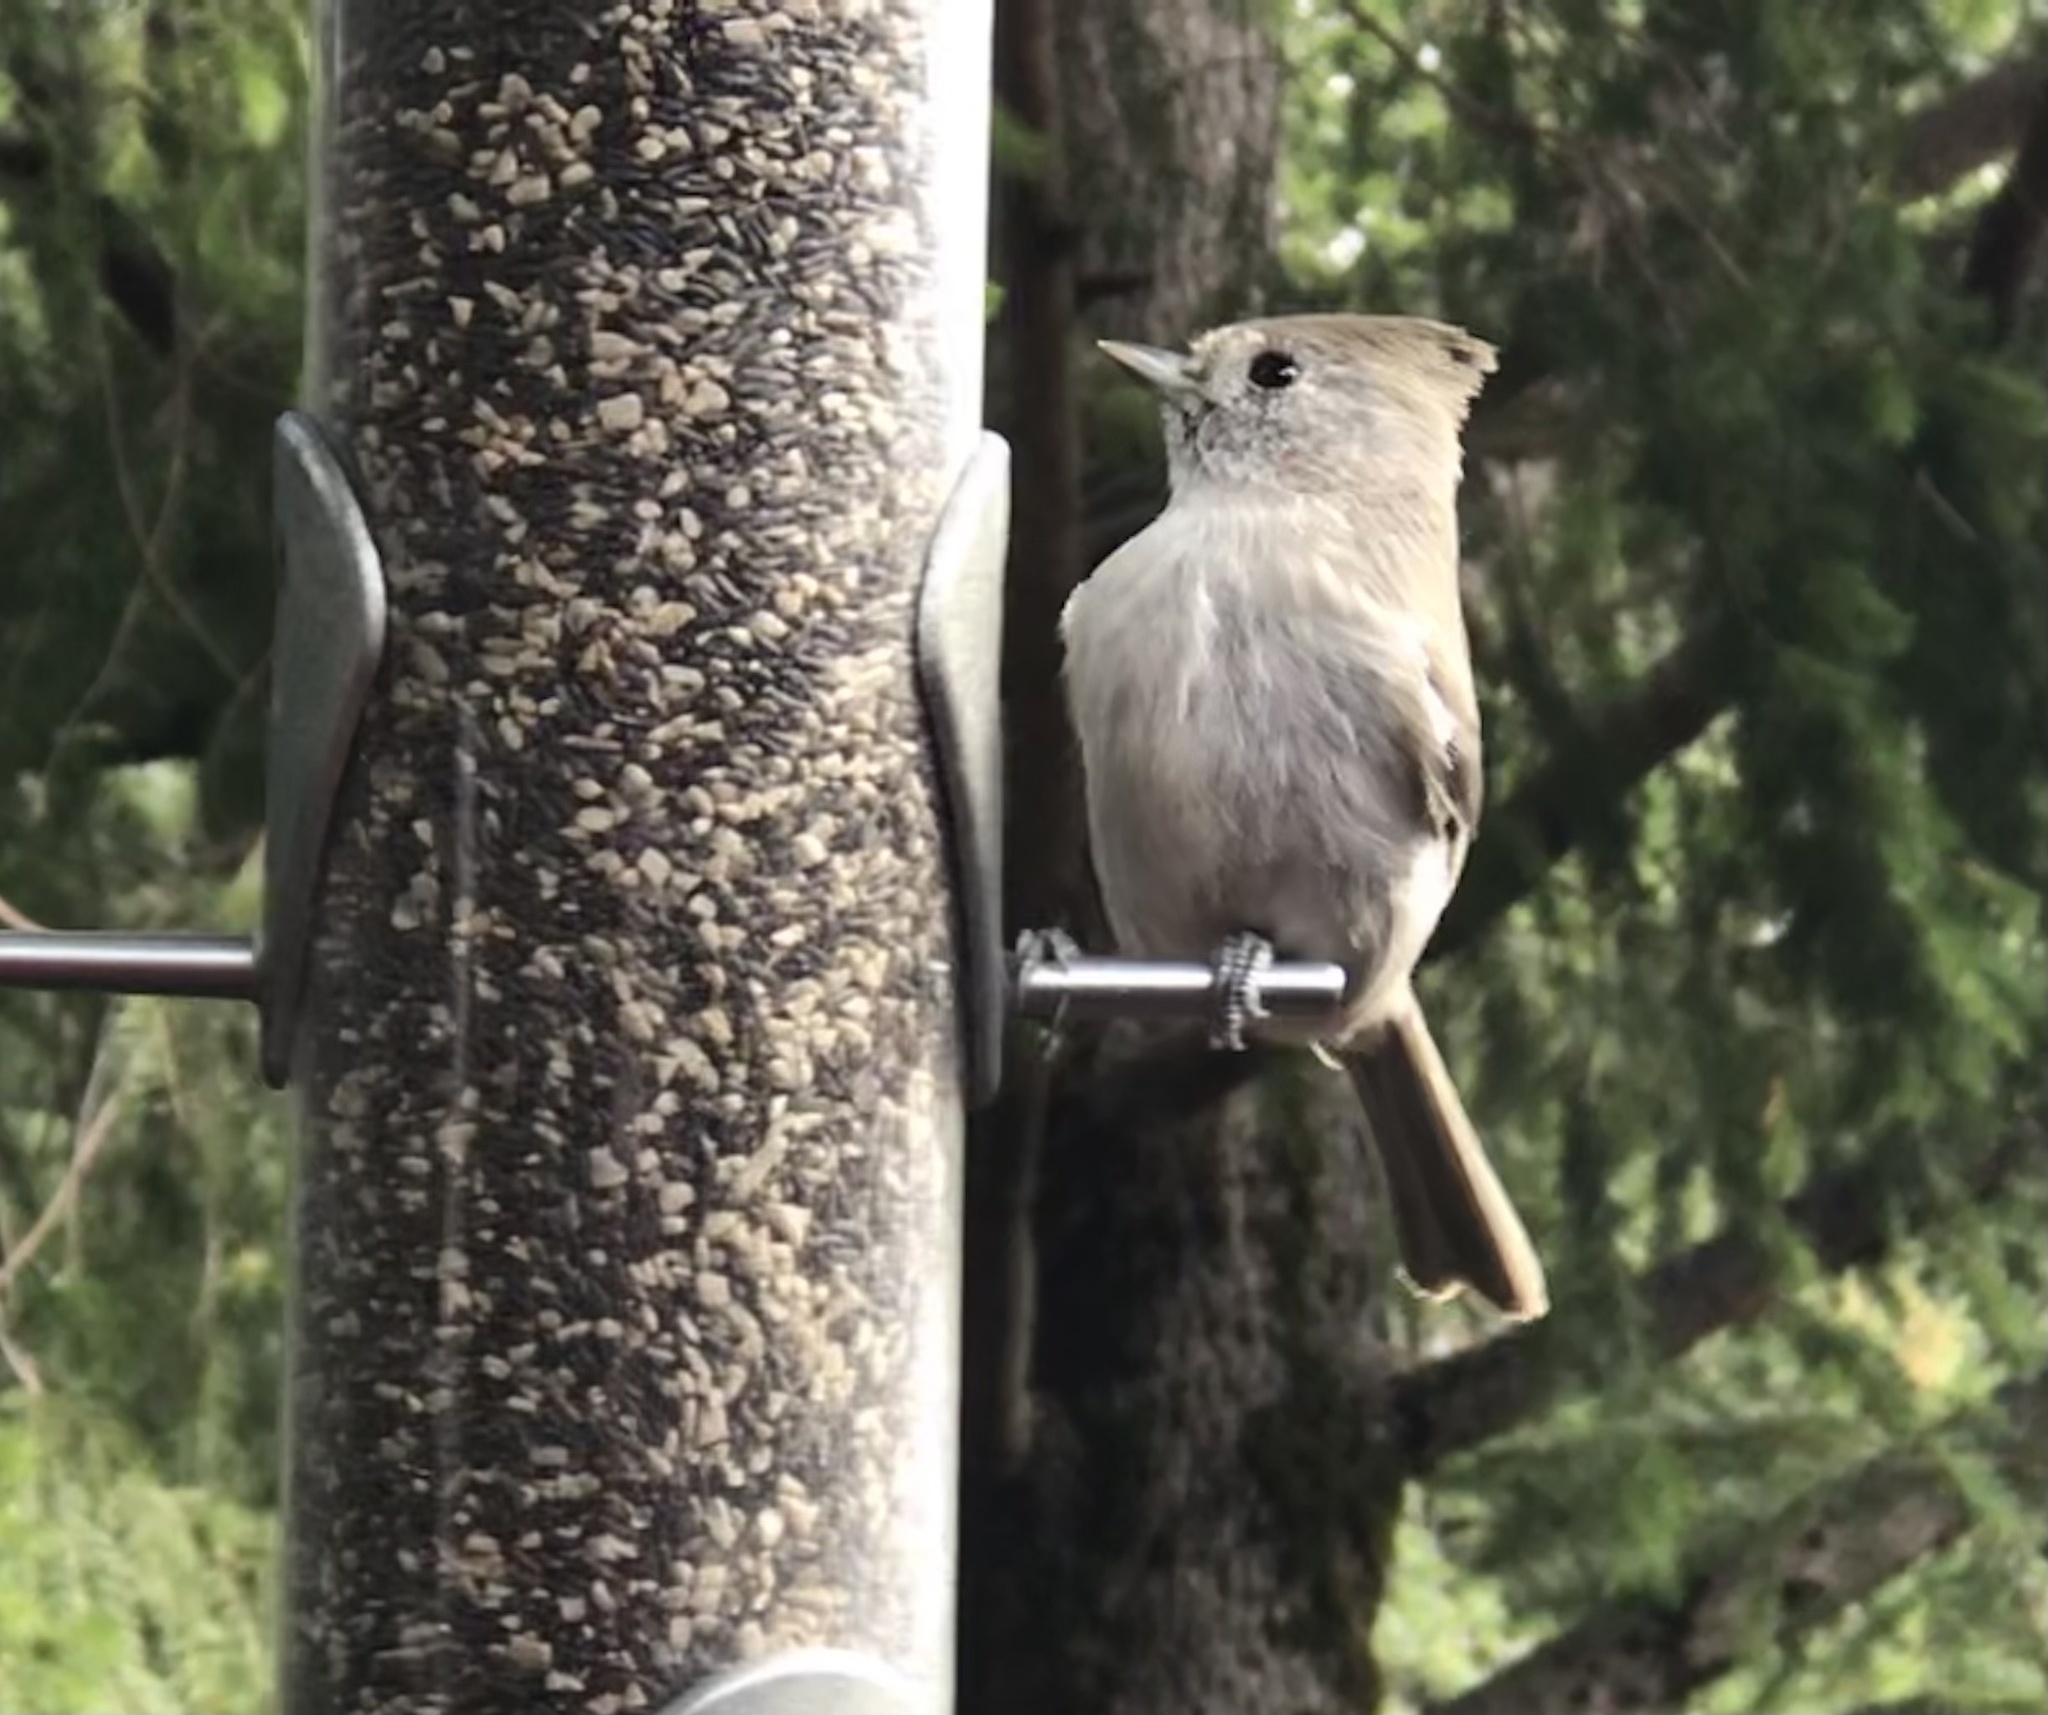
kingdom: Animalia
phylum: Chordata
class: Aves
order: Passeriformes
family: Paridae
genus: Baeolophus
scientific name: Baeolophus inornatus
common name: Oak titmouse
